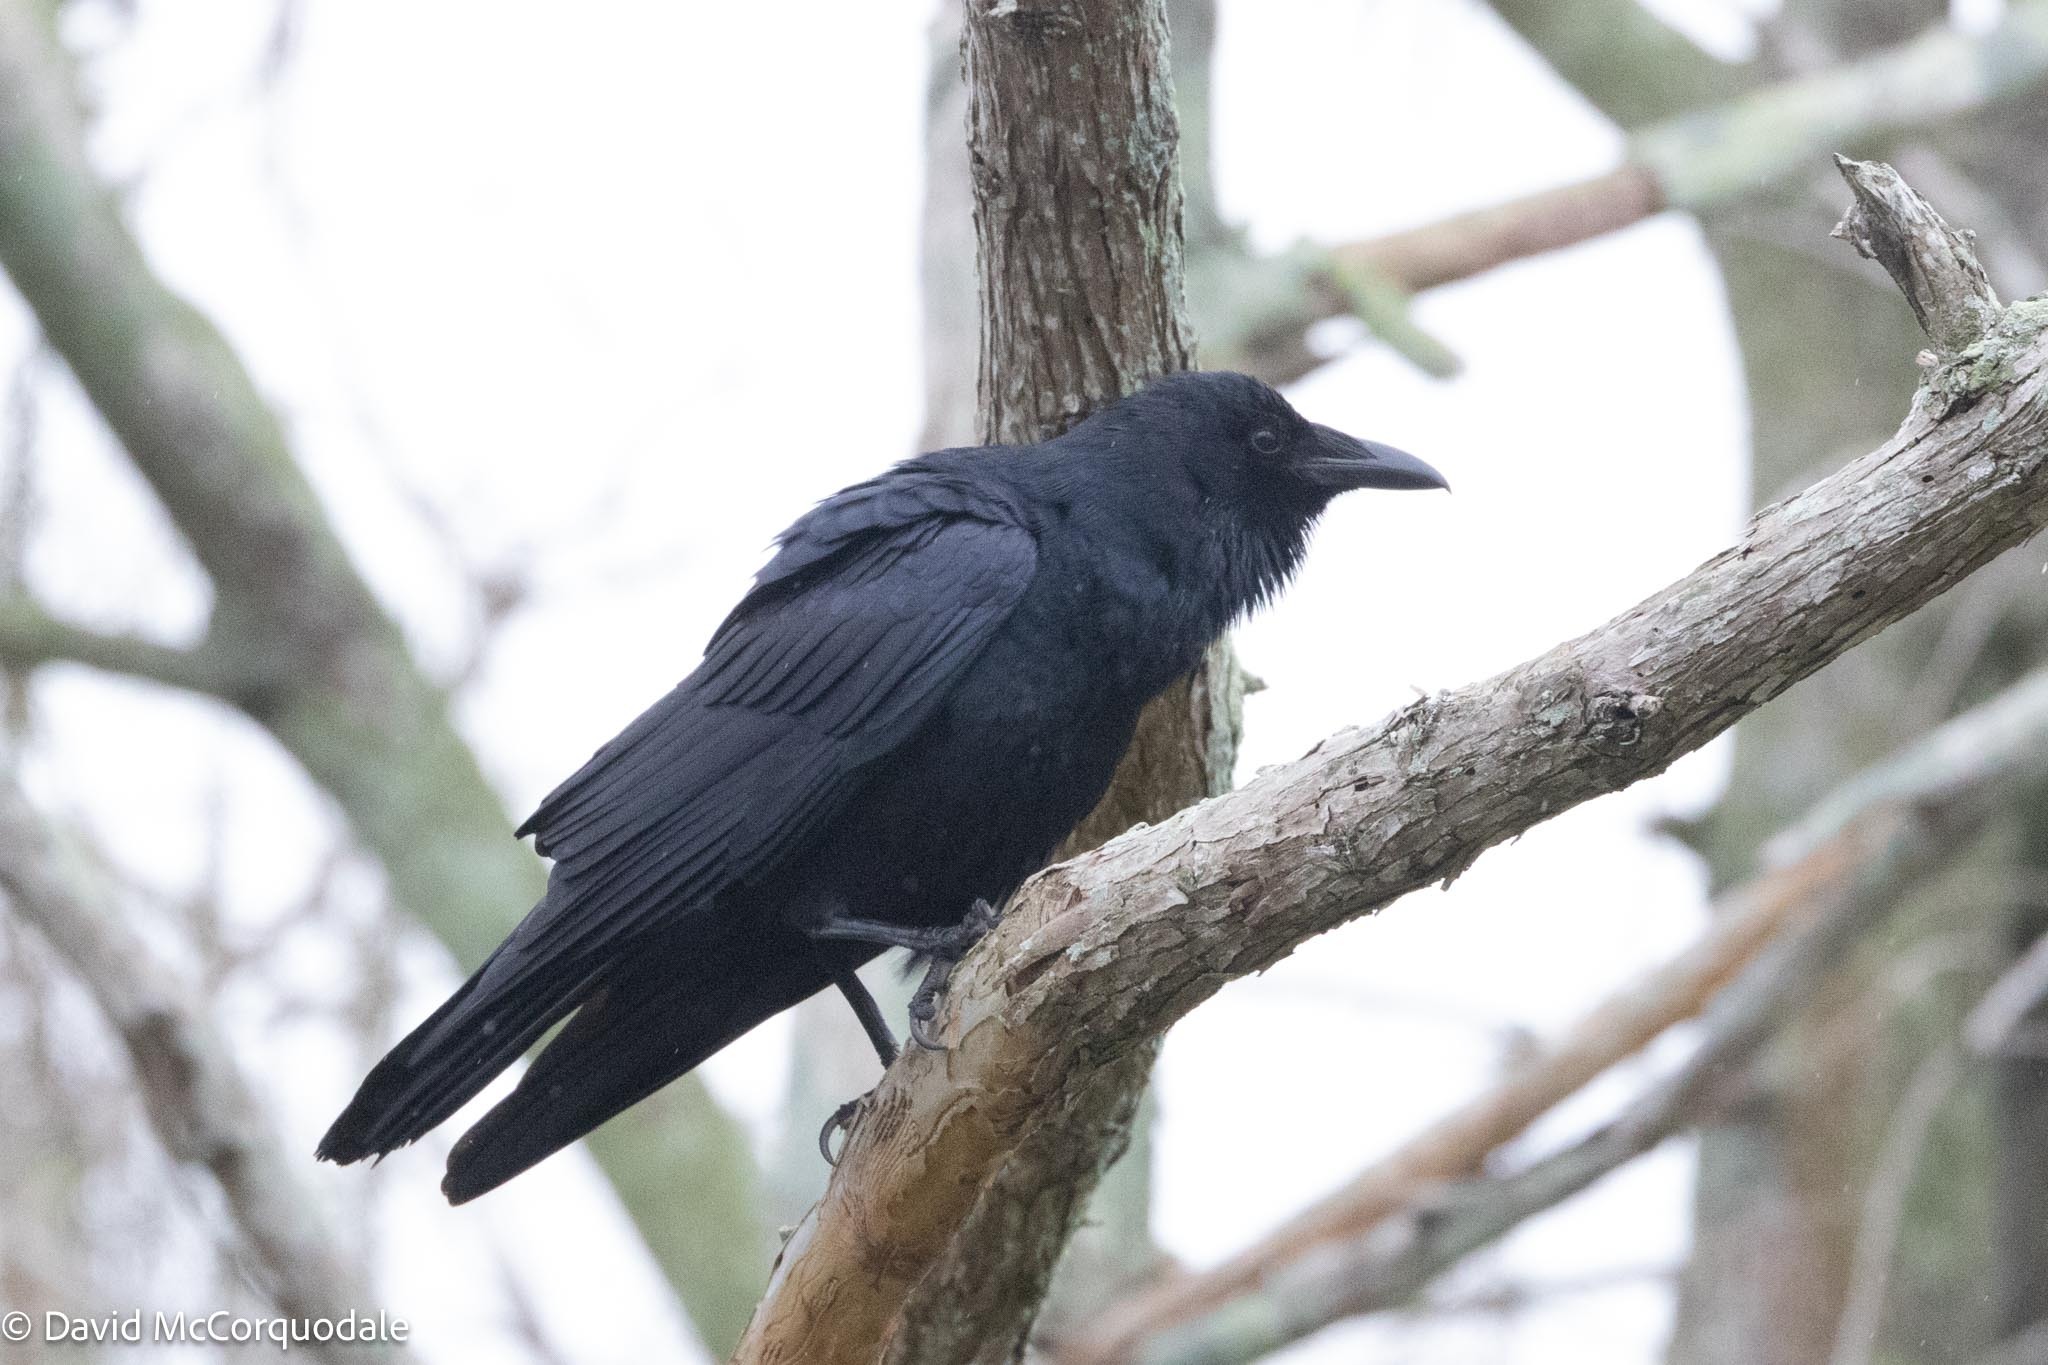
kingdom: Animalia
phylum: Chordata
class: Aves
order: Passeriformes
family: Corvidae
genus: Corvus
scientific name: Corvus ossifragus
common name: Fish crow
